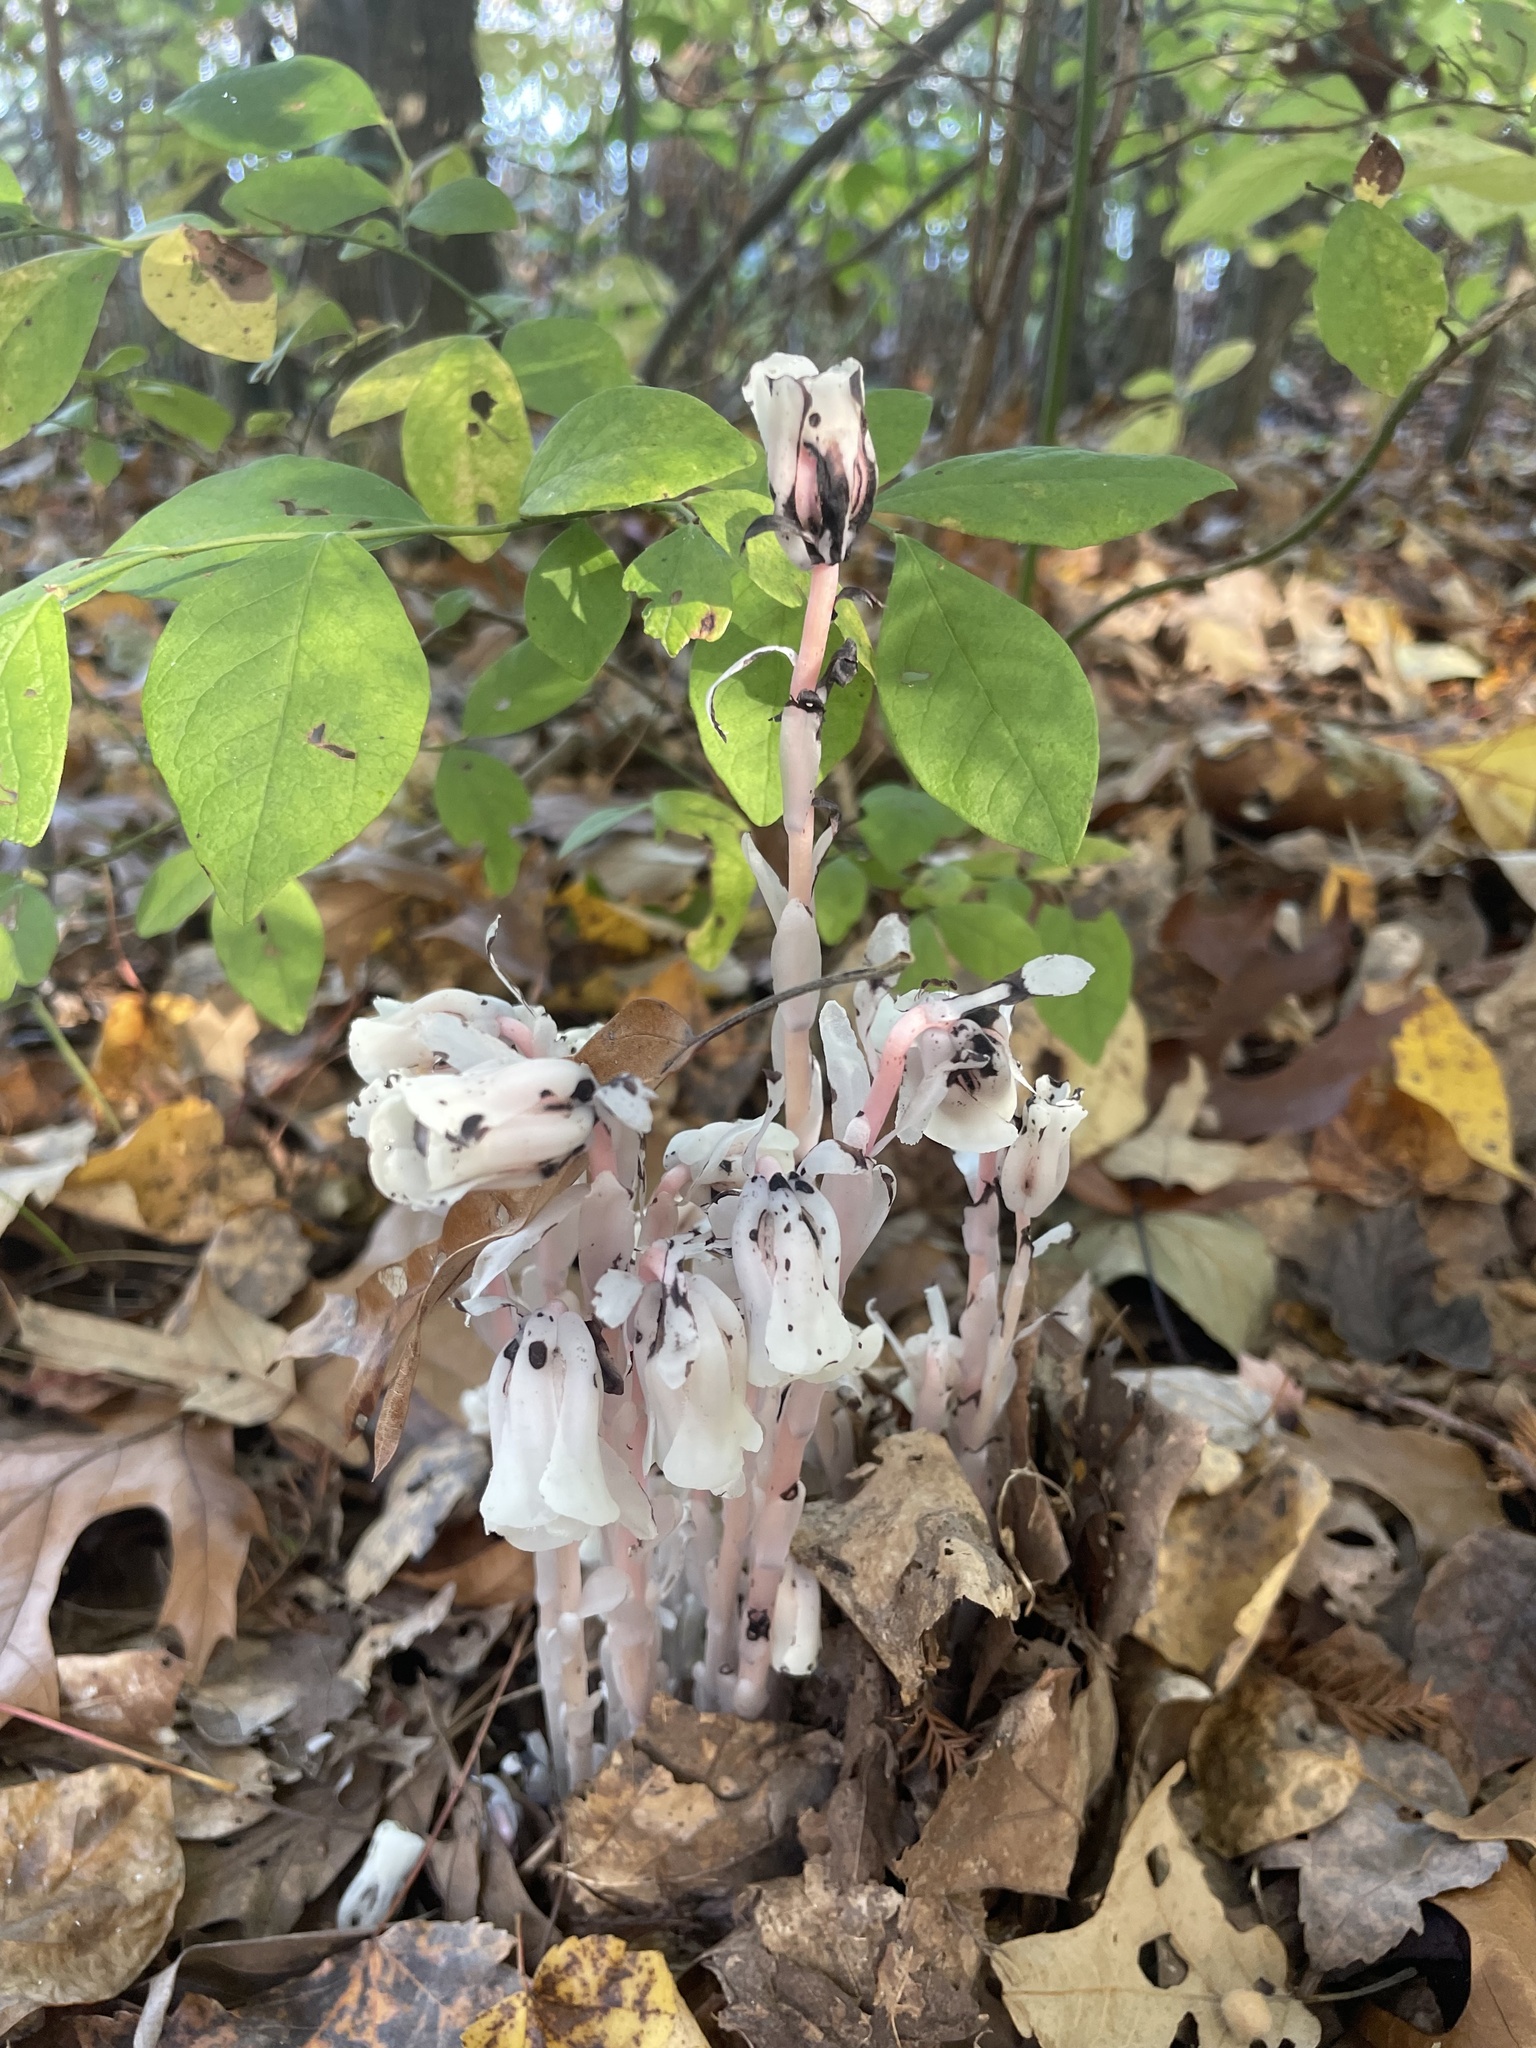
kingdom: Plantae
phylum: Tracheophyta
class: Magnoliopsida
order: Ericales
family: Ericaceae
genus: Monotropa
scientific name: Monotropa uniflora
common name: Convulsion root
